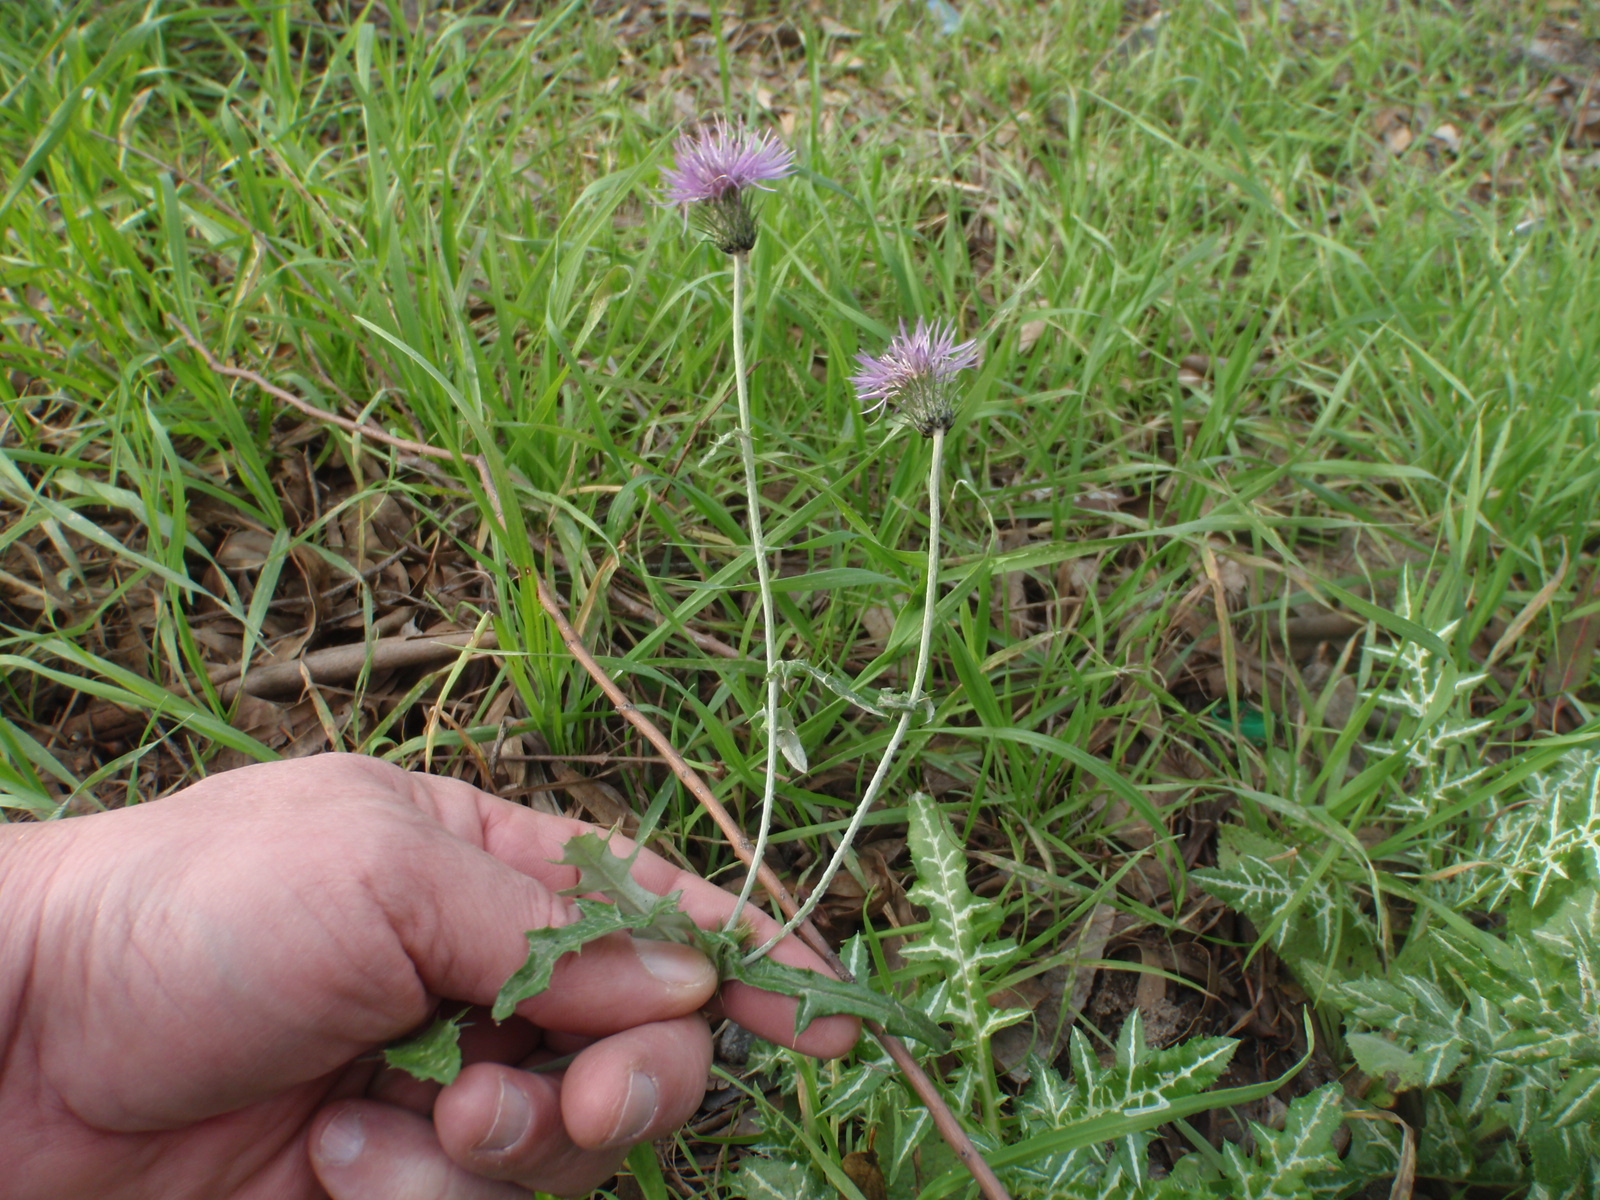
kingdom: Plantae
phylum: Tracheophyta
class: Magnoliopsida
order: Asterales
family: Asteraceae
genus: Galactites
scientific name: Galactites tomentosa
